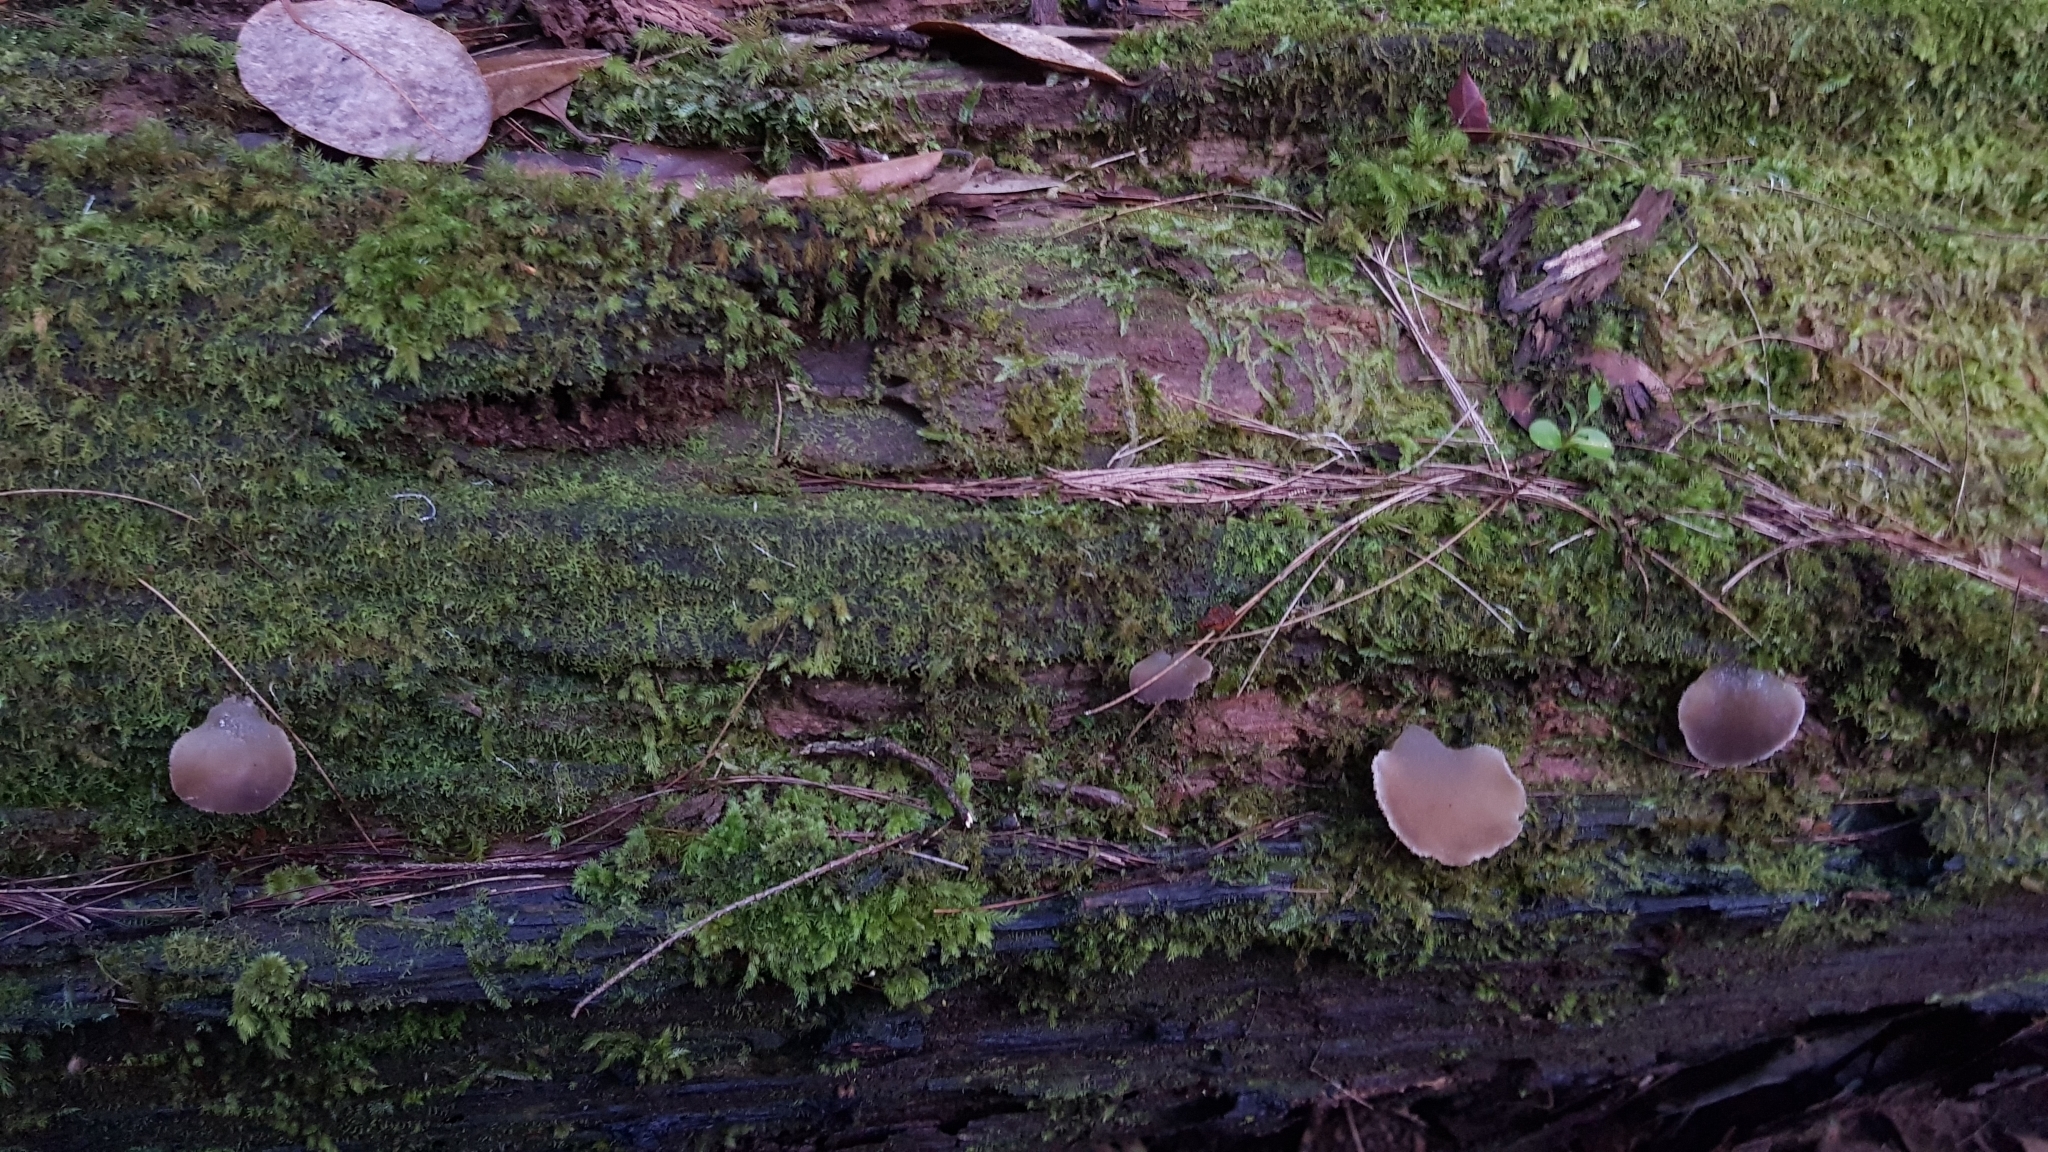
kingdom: Fungi
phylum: Basidiomycota
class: Agaricomycetes
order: Auriculariales
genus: Pseudohydnum
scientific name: Pseudohydnum gelatinosum
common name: Jelly tongue
